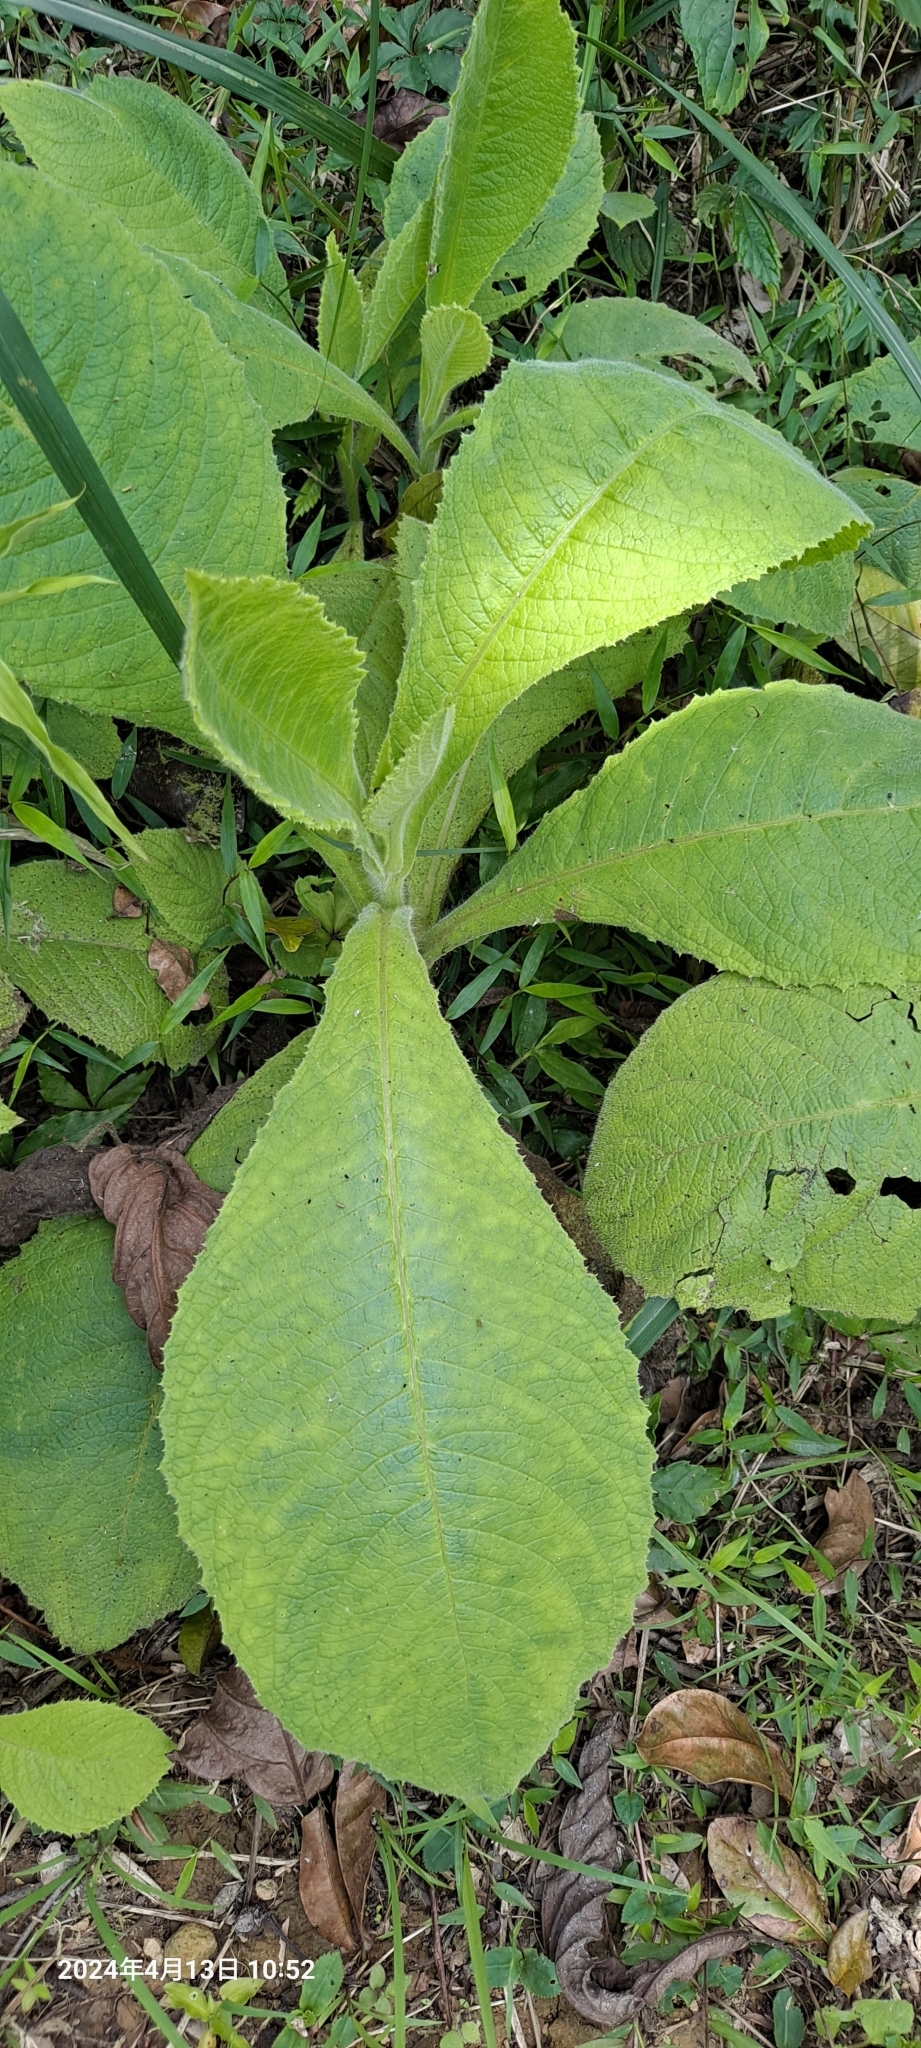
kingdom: Plantae
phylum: Tracheophyta
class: Magnoliopsida
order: Asterales
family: Asteraceae
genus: Blumea
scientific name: Blumea aromatica
